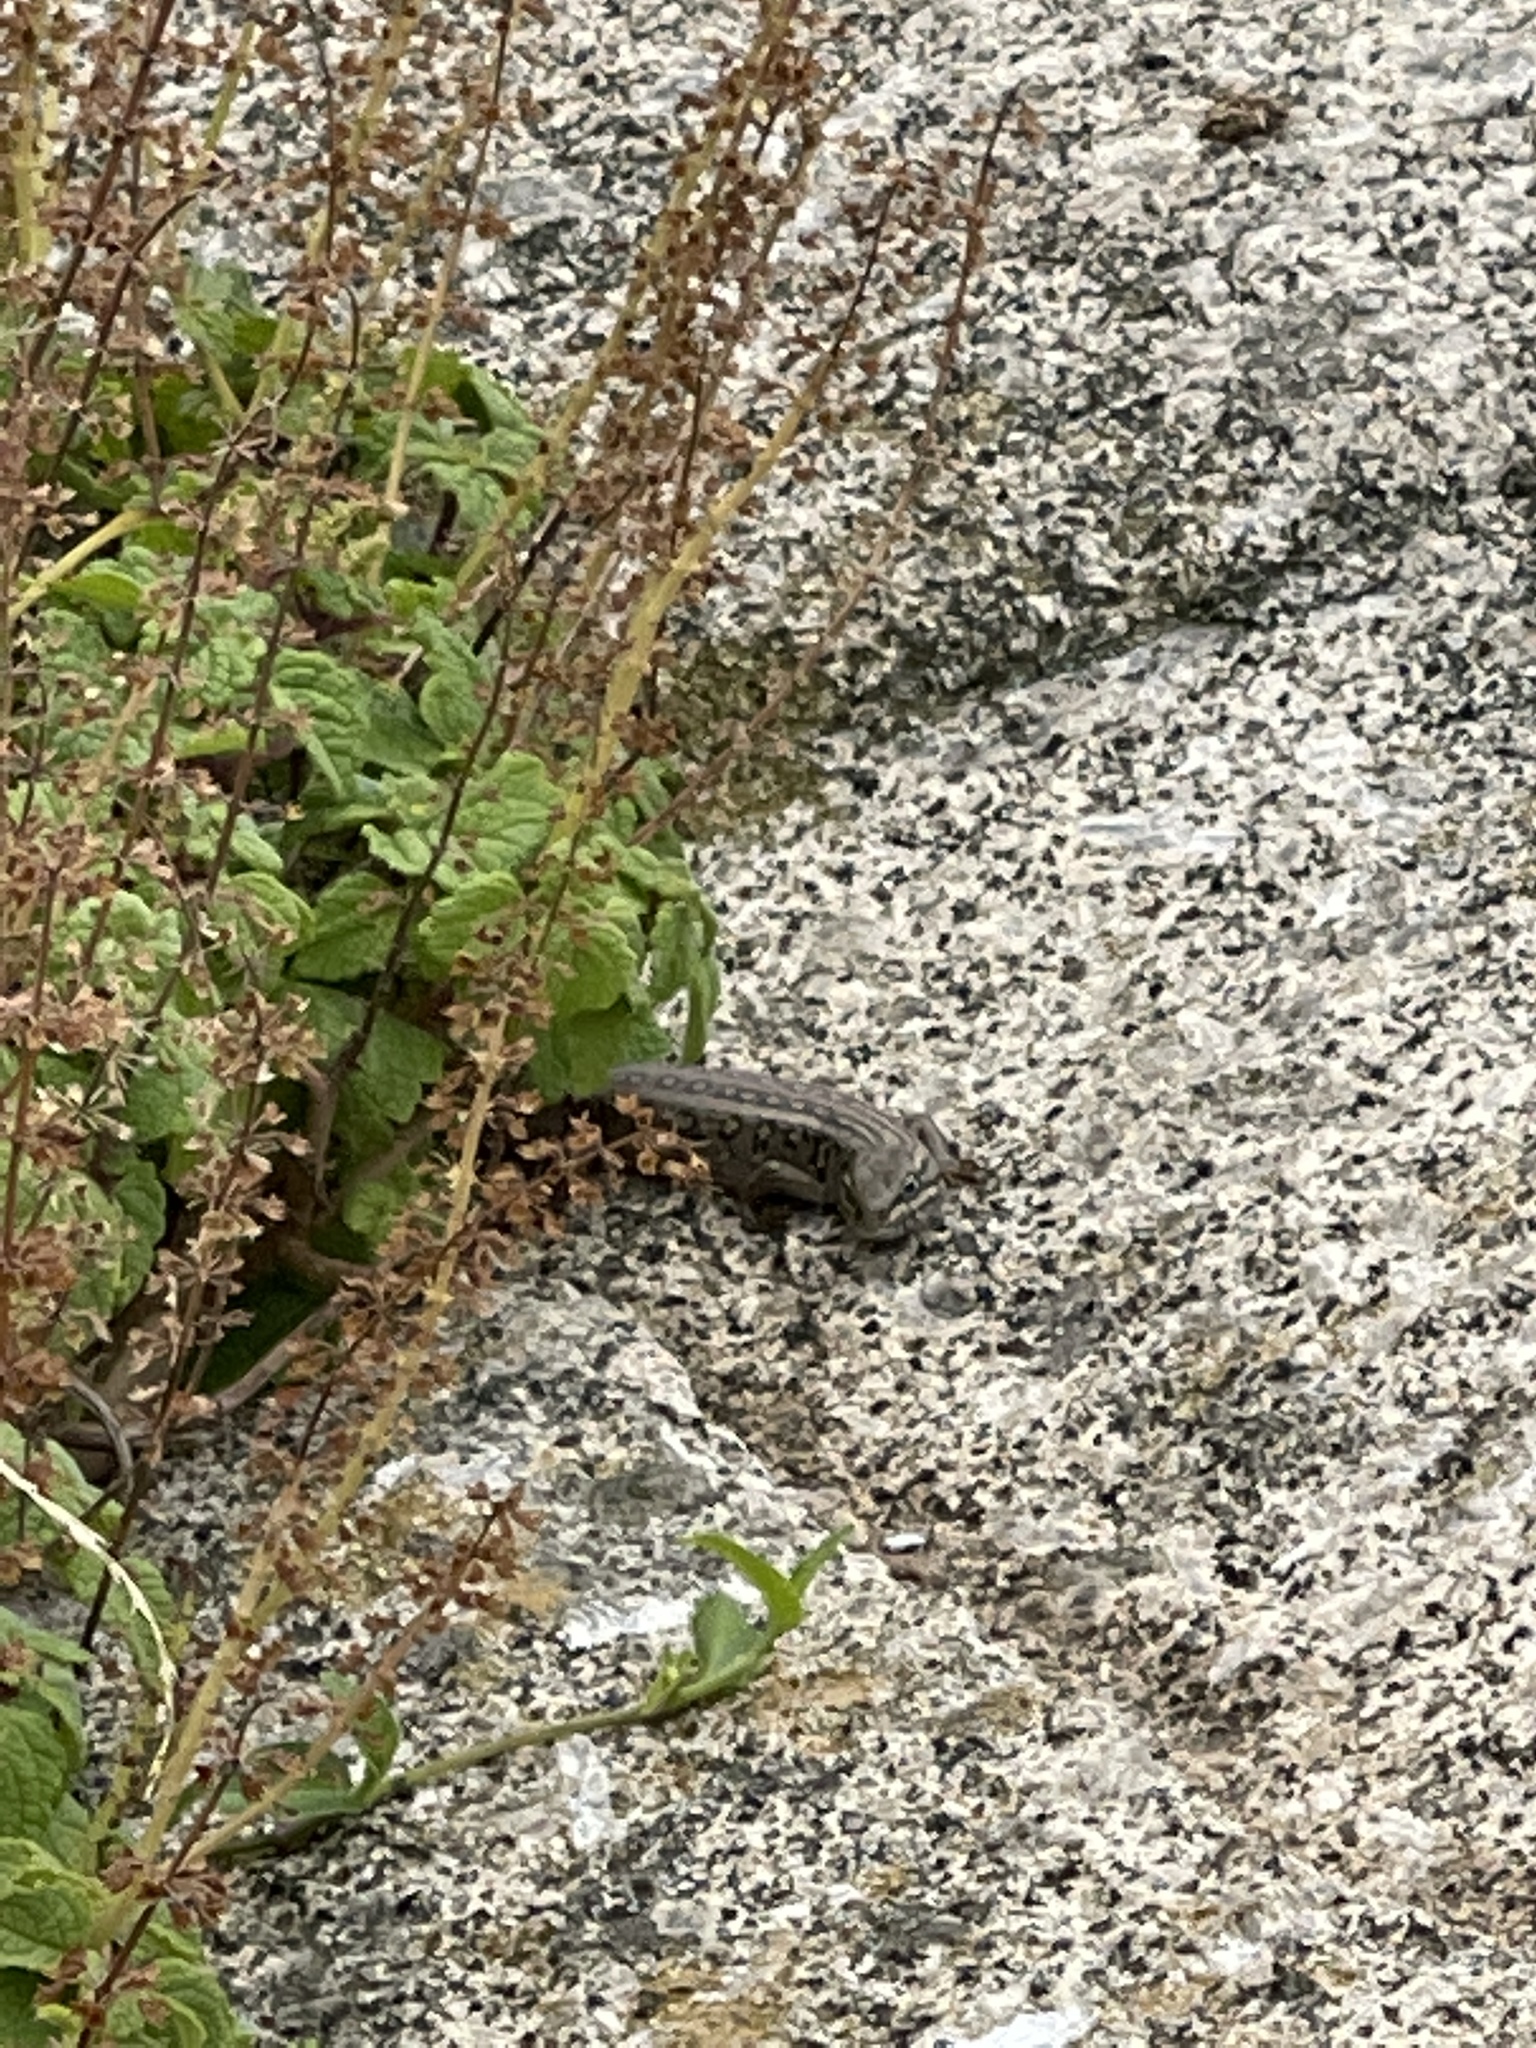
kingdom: Animalia
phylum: Chordata
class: Squamata
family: Scincidae
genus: Liopholis
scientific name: Liopholis whitii
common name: White's rock-skink
